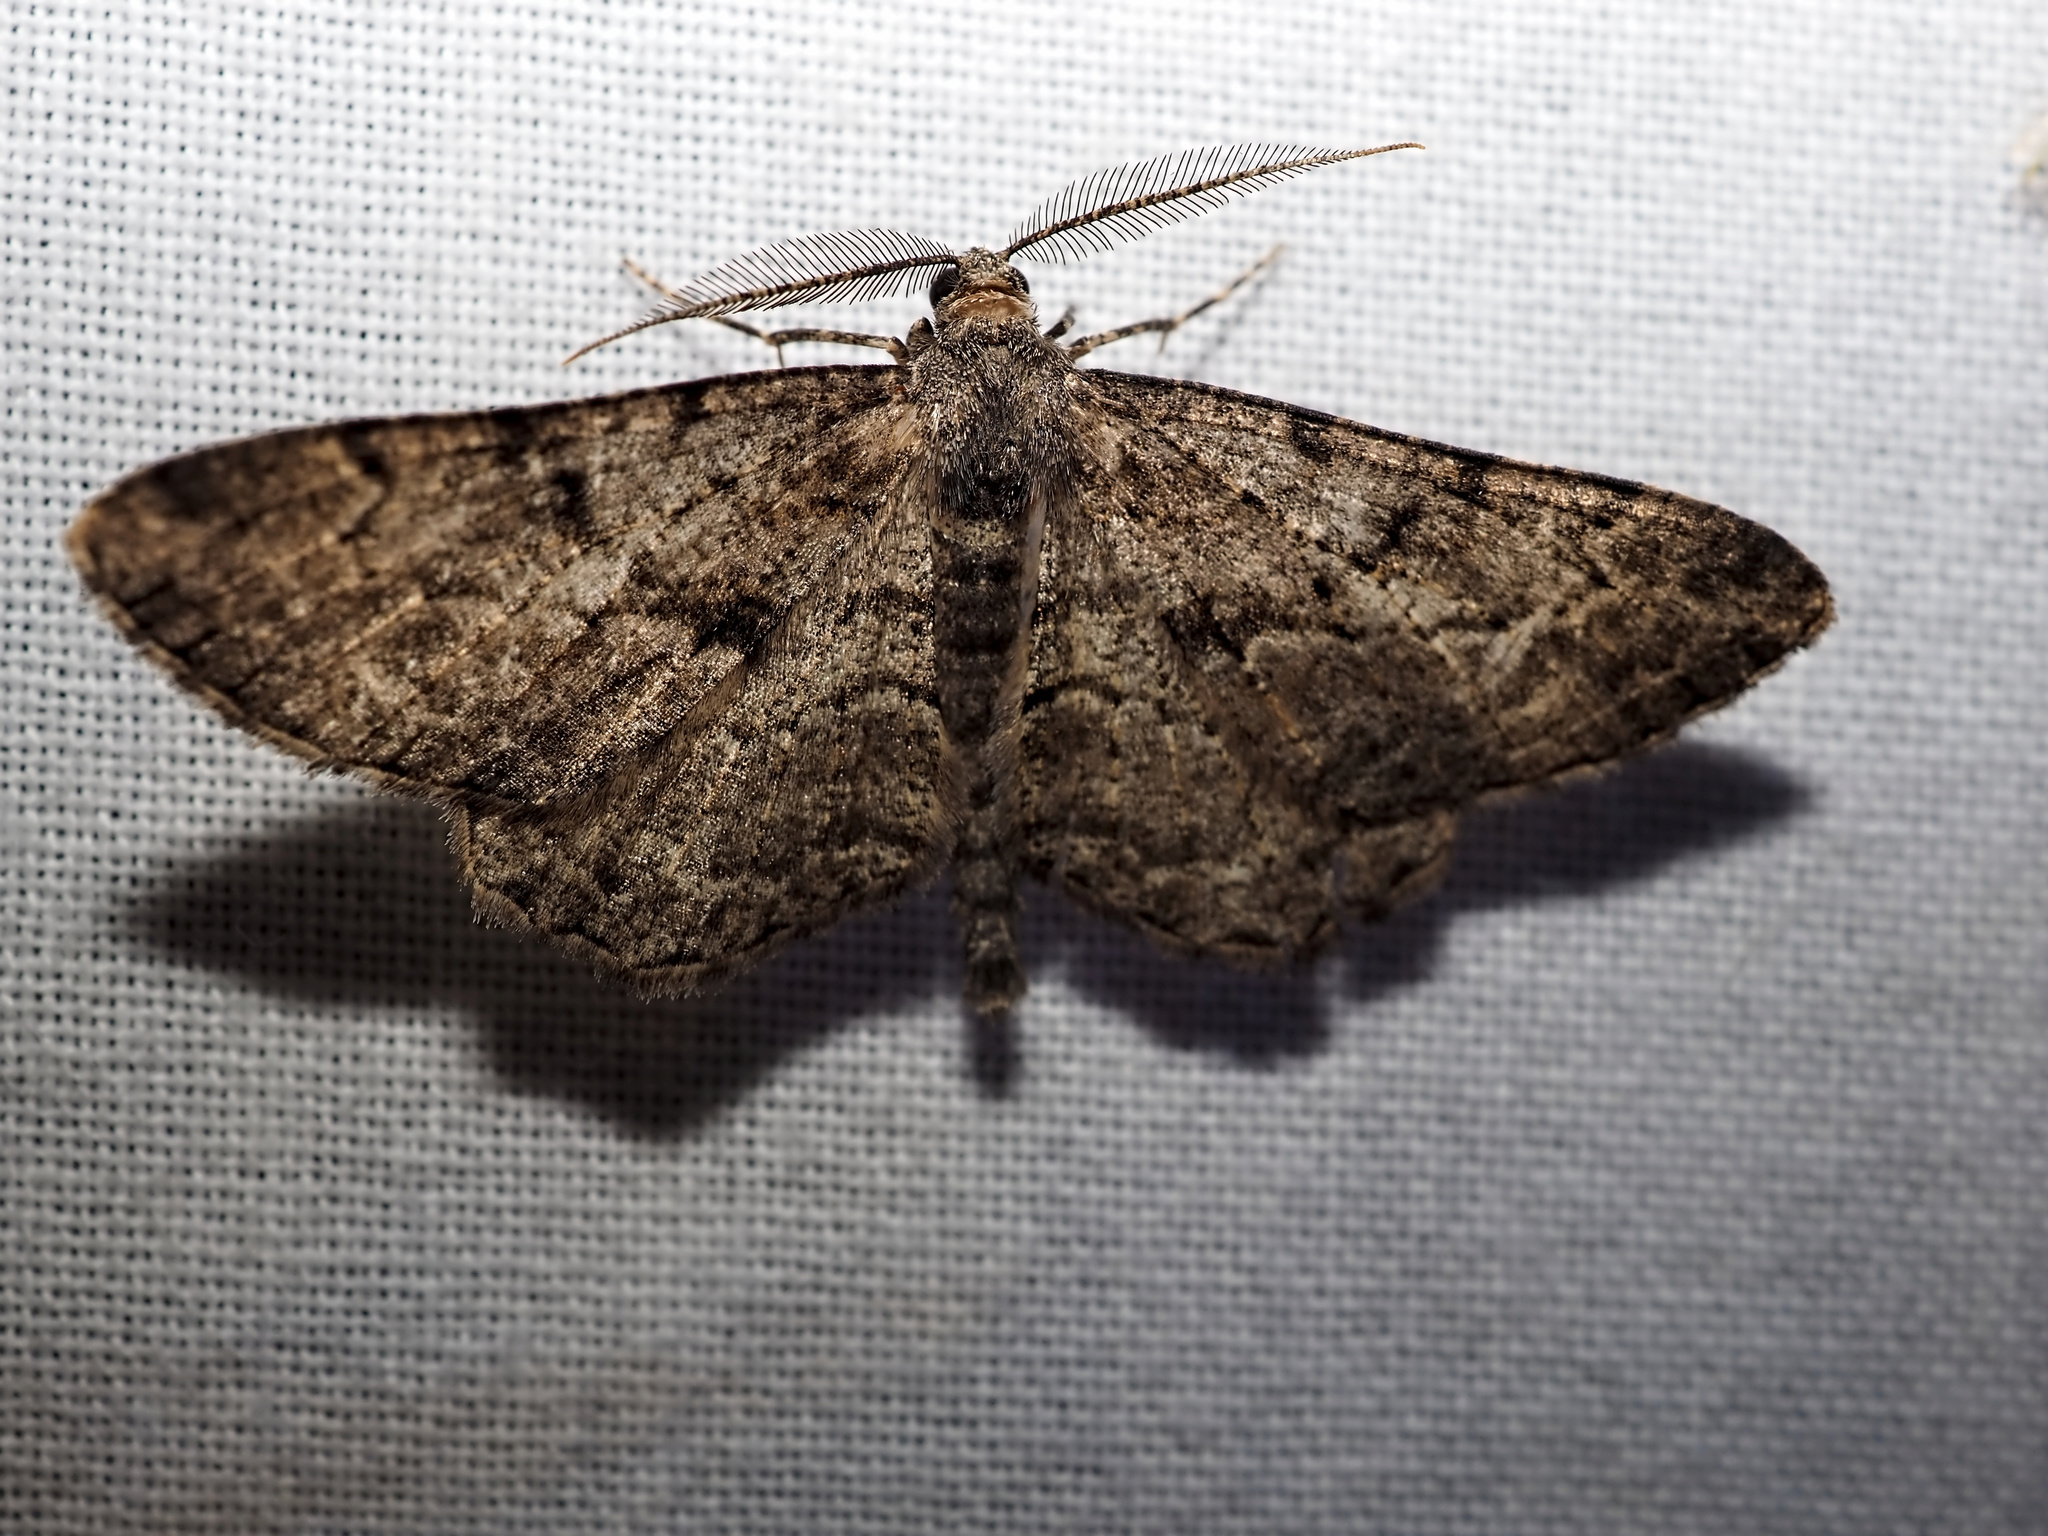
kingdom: Animalia
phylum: Arthropoda
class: Insecta
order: Lepidoptera
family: Geometridae
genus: Peribatodes
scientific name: Peribatodes rhomboidaria
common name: Willow beauty
